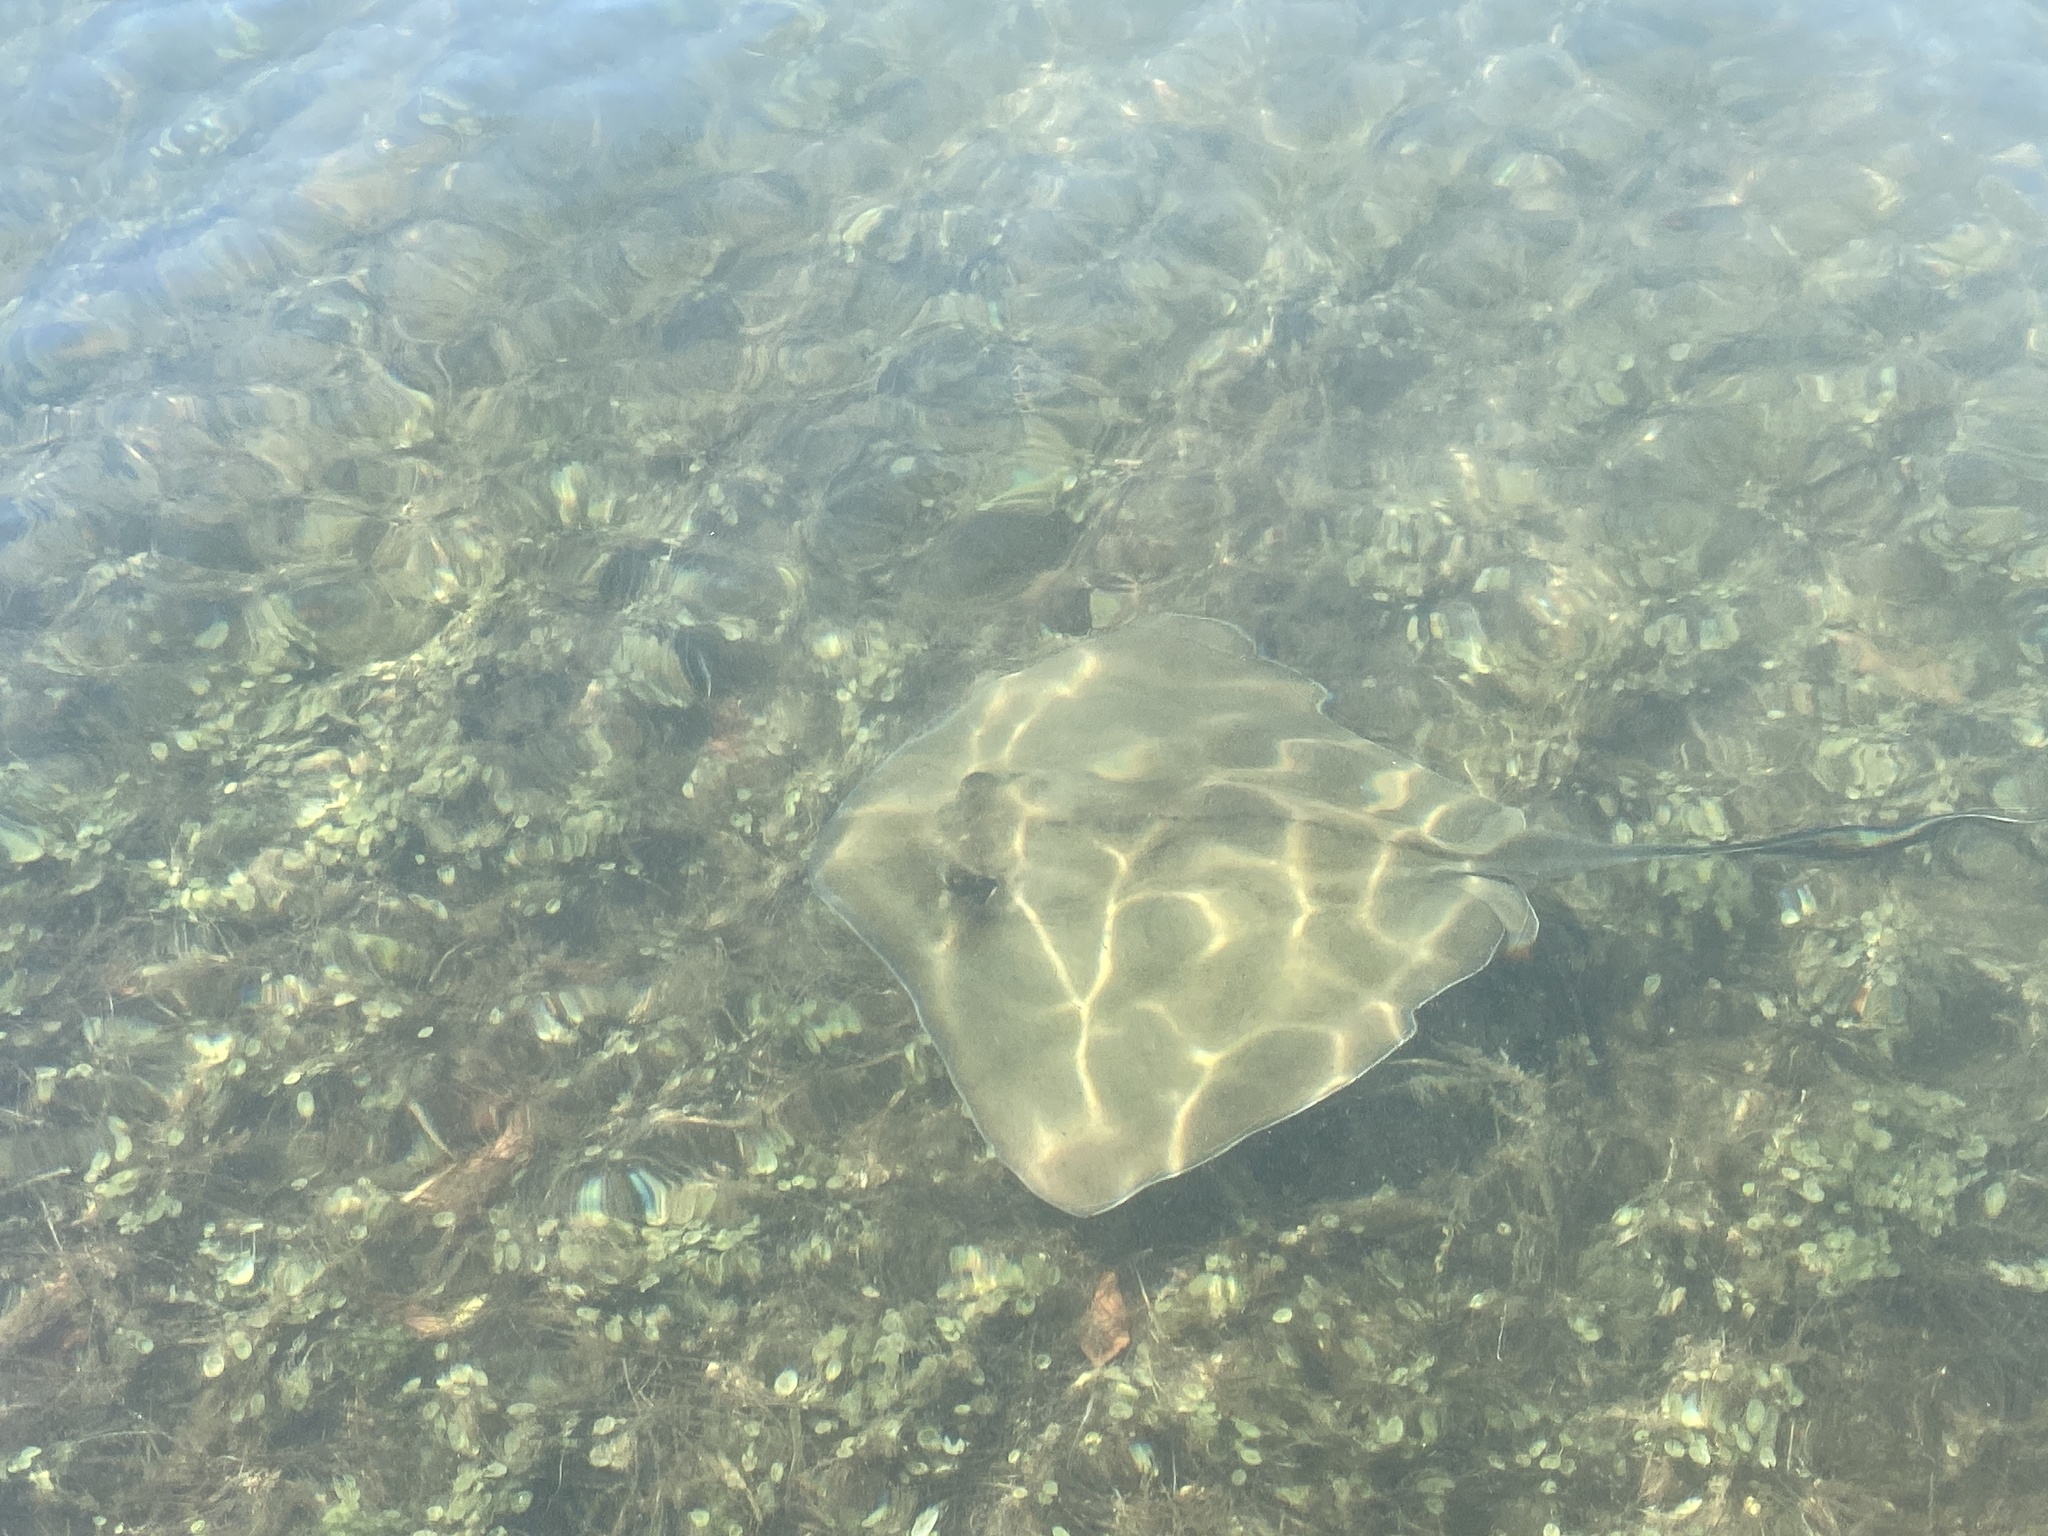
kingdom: Animalia
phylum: Chordata
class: Elasmobranchii
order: Myliobatiformes
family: Dasyatidae
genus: Hypanus
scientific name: Hypanus americanus
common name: Southern stingray
